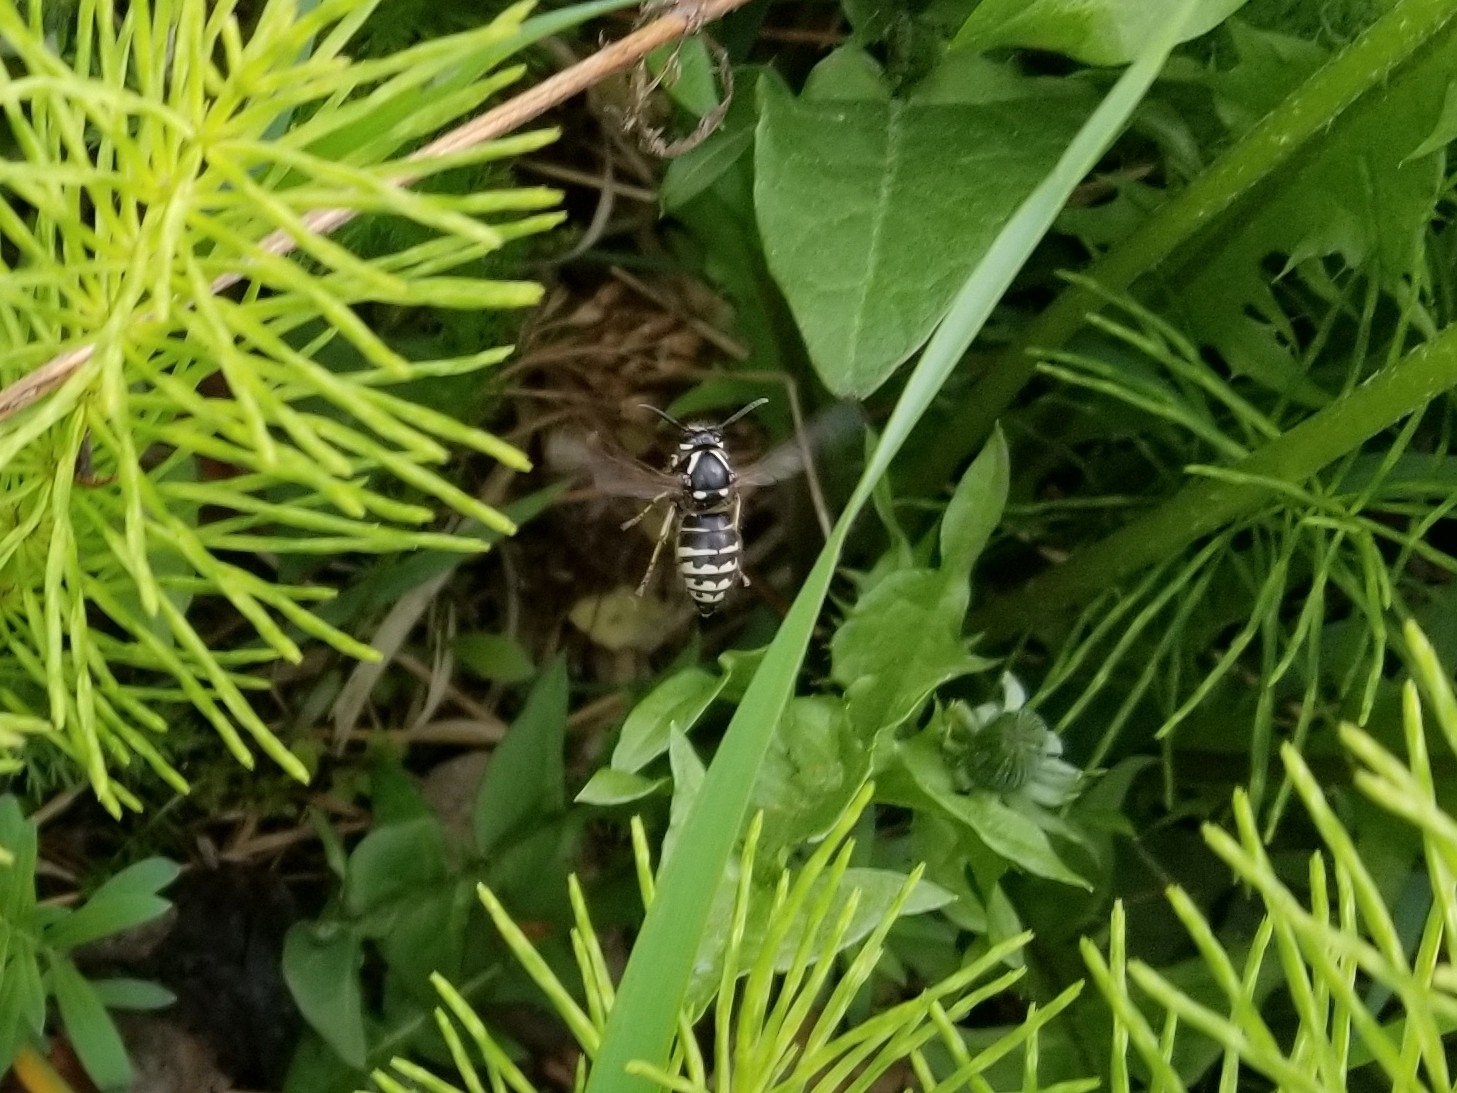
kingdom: Animalia
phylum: Arthropoda
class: Insecta
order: Hymenoptera
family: Vespidae
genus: Dolichovespula
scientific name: Dolichovespula adulterina
